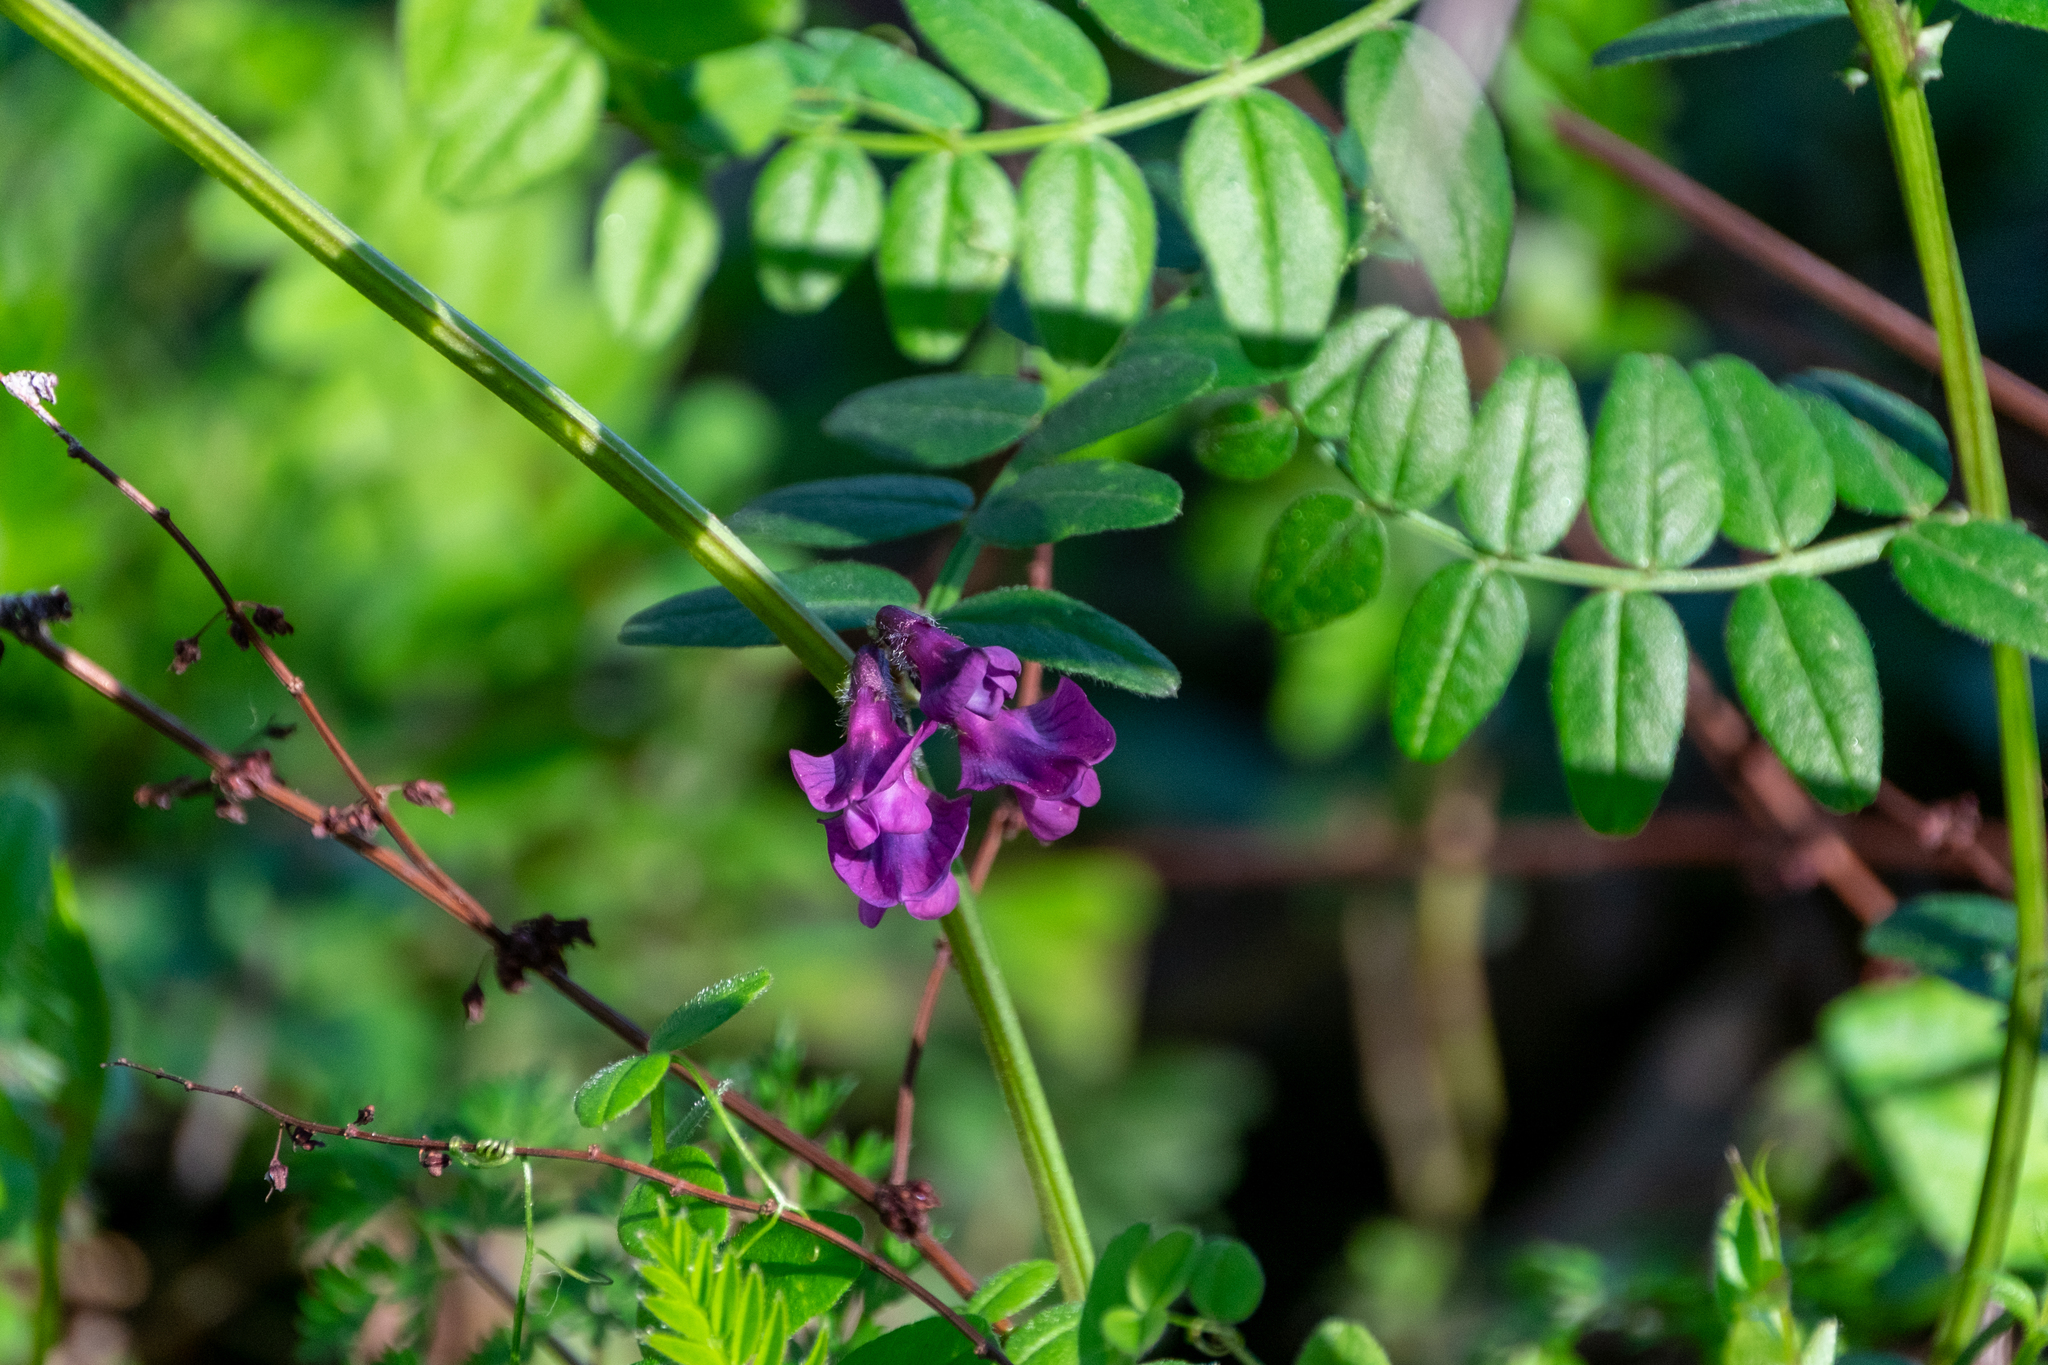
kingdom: Plantae
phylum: Tracheophyta
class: Magnoliopsida
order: Fabales
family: Fabaceae
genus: Vicia
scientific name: Vicia sepium
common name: Bush vetch
